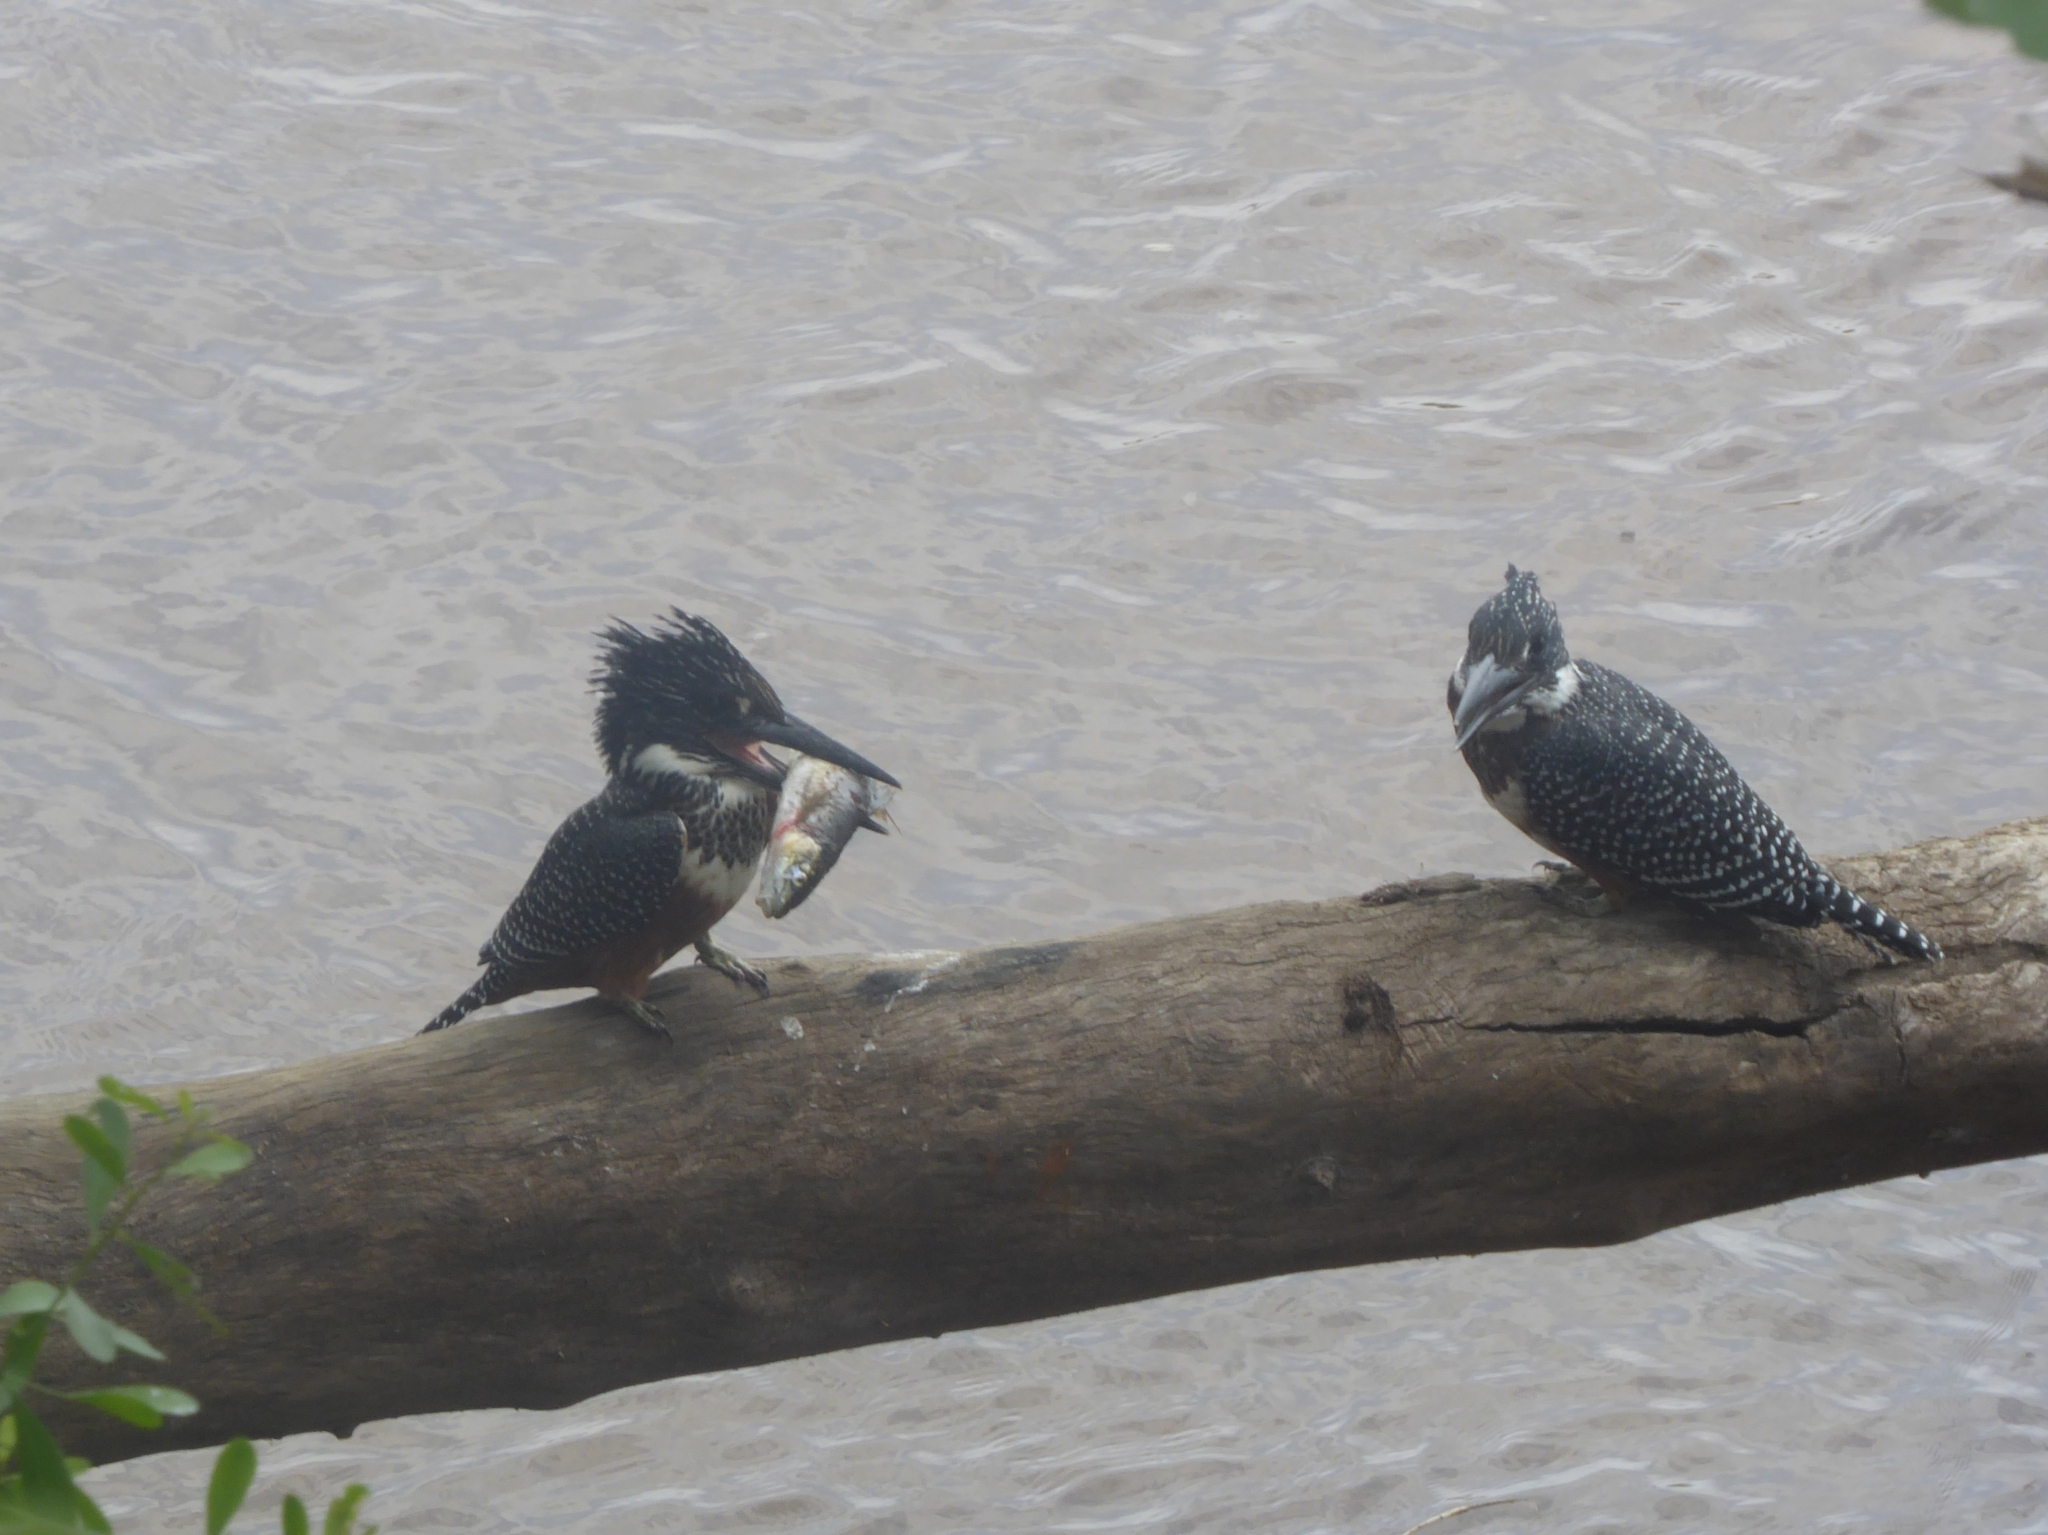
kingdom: Animalia
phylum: Chordata
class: Aves
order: Coraciiformes
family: Alcedinidae
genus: Megaceryle
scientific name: Megaceryle maxima
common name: Giant kingfisher
